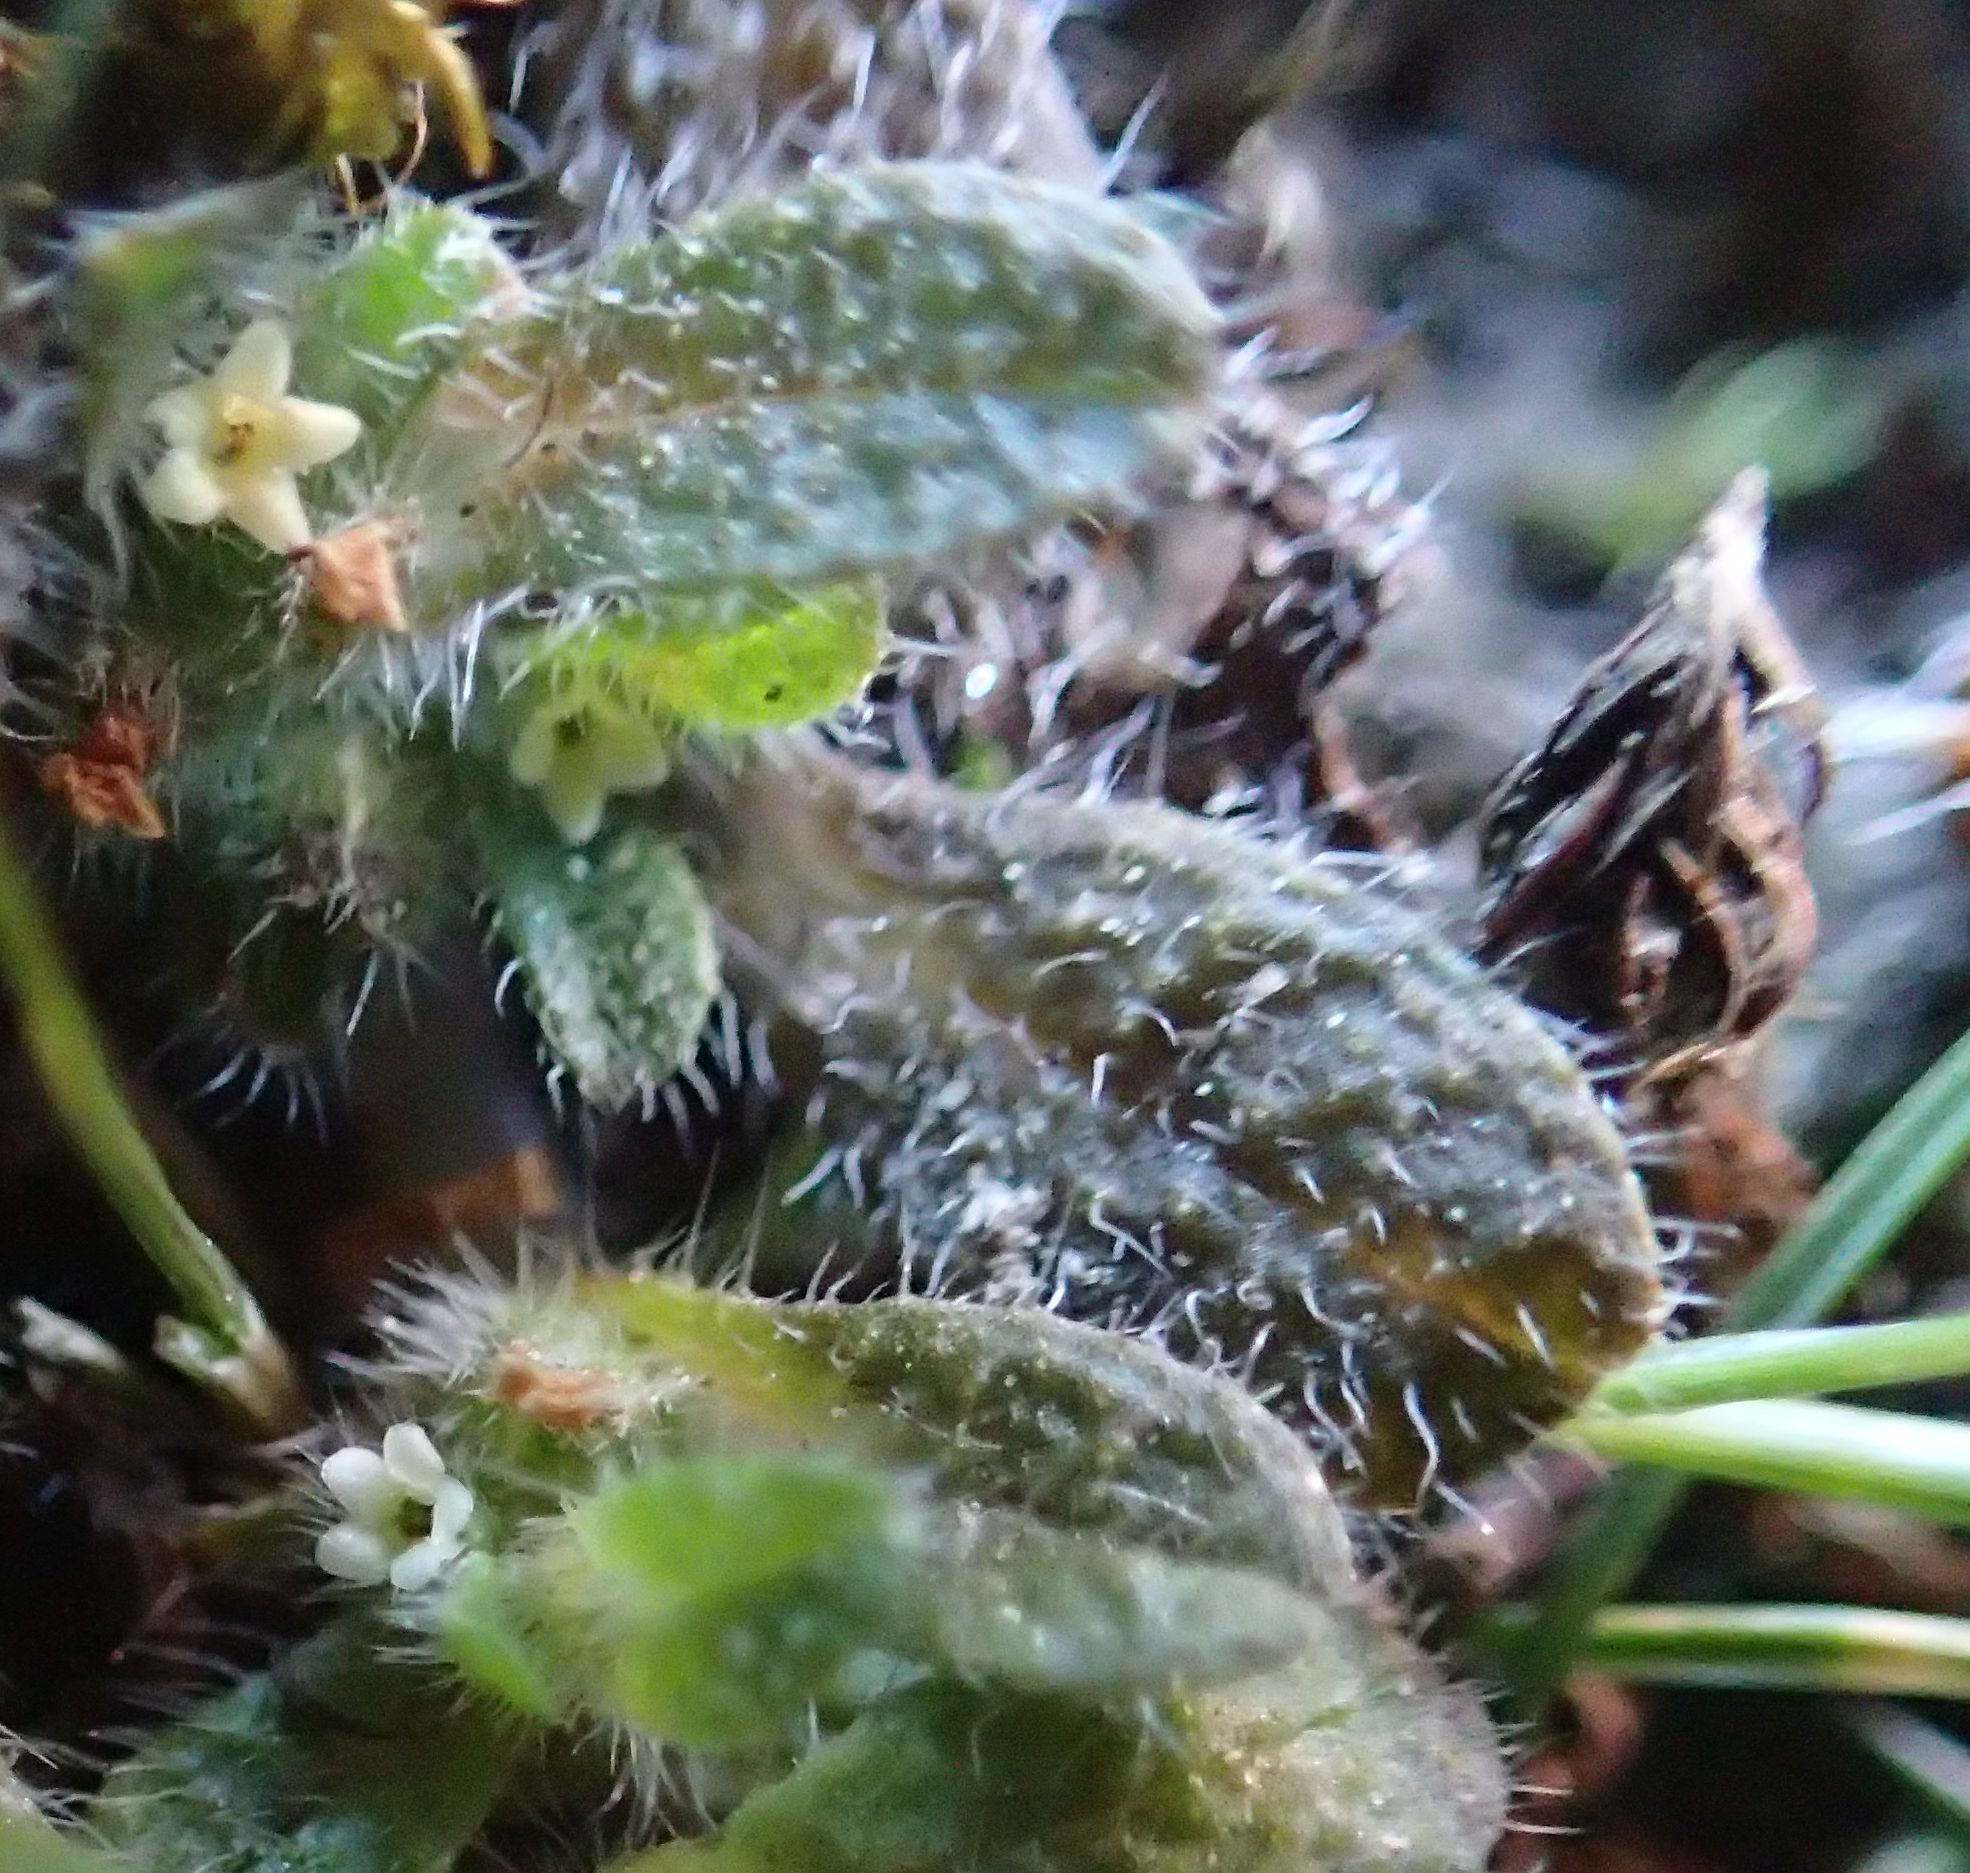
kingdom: Plantae
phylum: Tracheophyta
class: Magnoliopsida
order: Boraginales
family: Boraginaceae
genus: Myosotis
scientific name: Myosotis brevis
